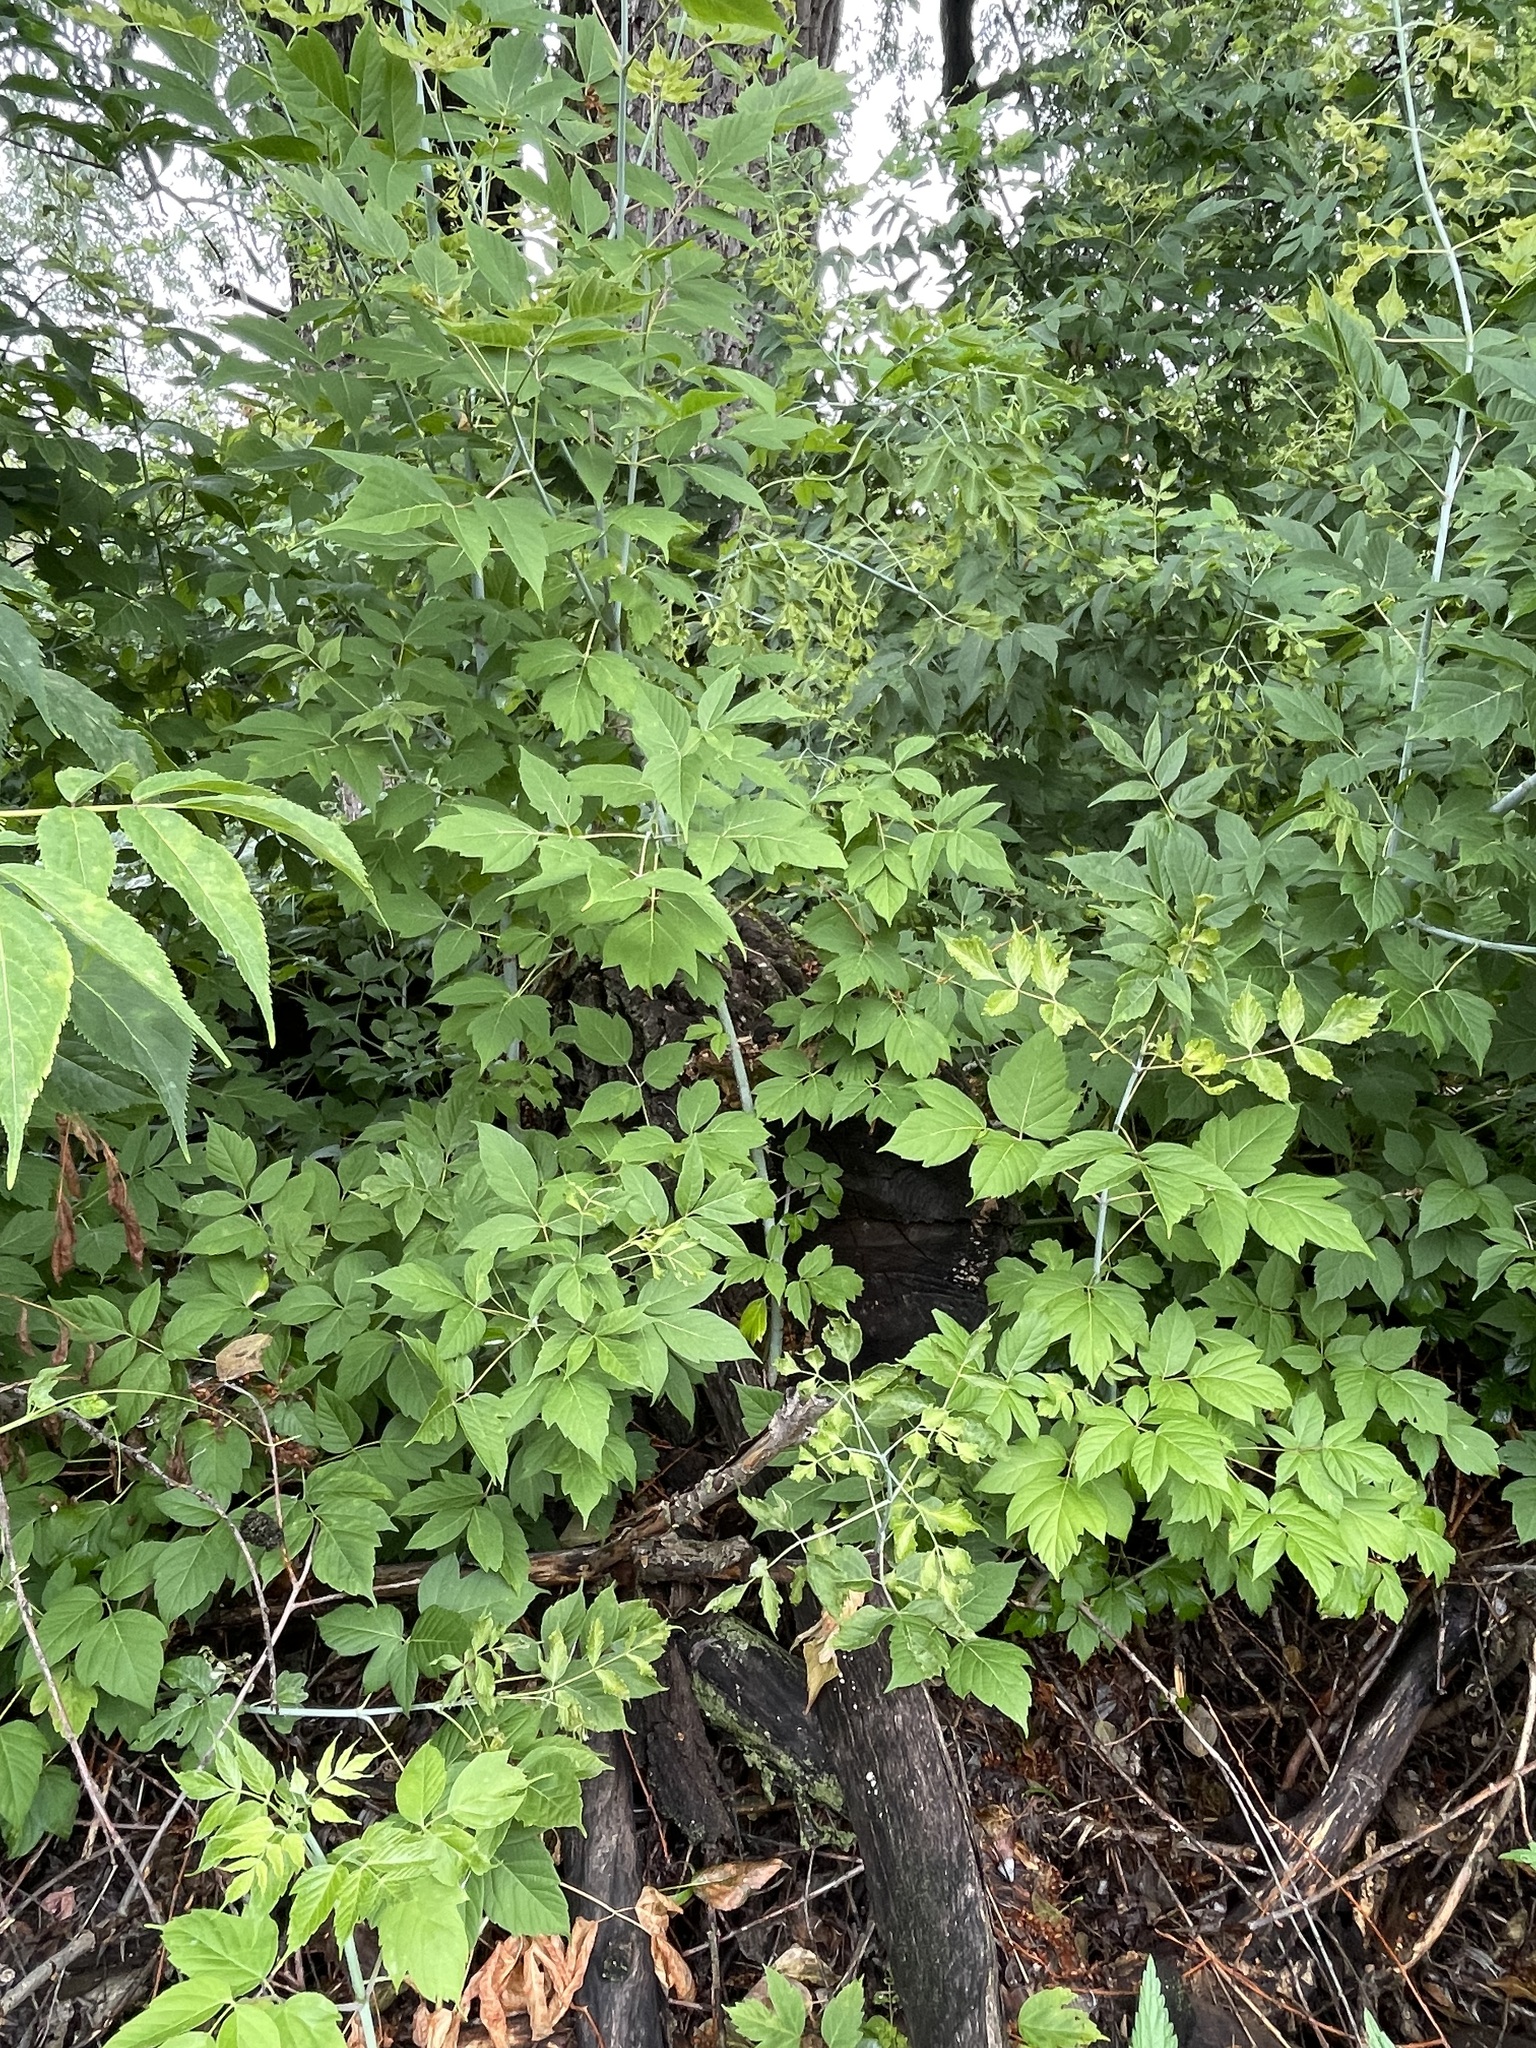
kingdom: Plantae
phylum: Tracheophyta
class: Magnoliopsida
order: Sapindales
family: Sapindaceae
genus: Acer
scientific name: Acer negundo
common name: Ashleaf maple
